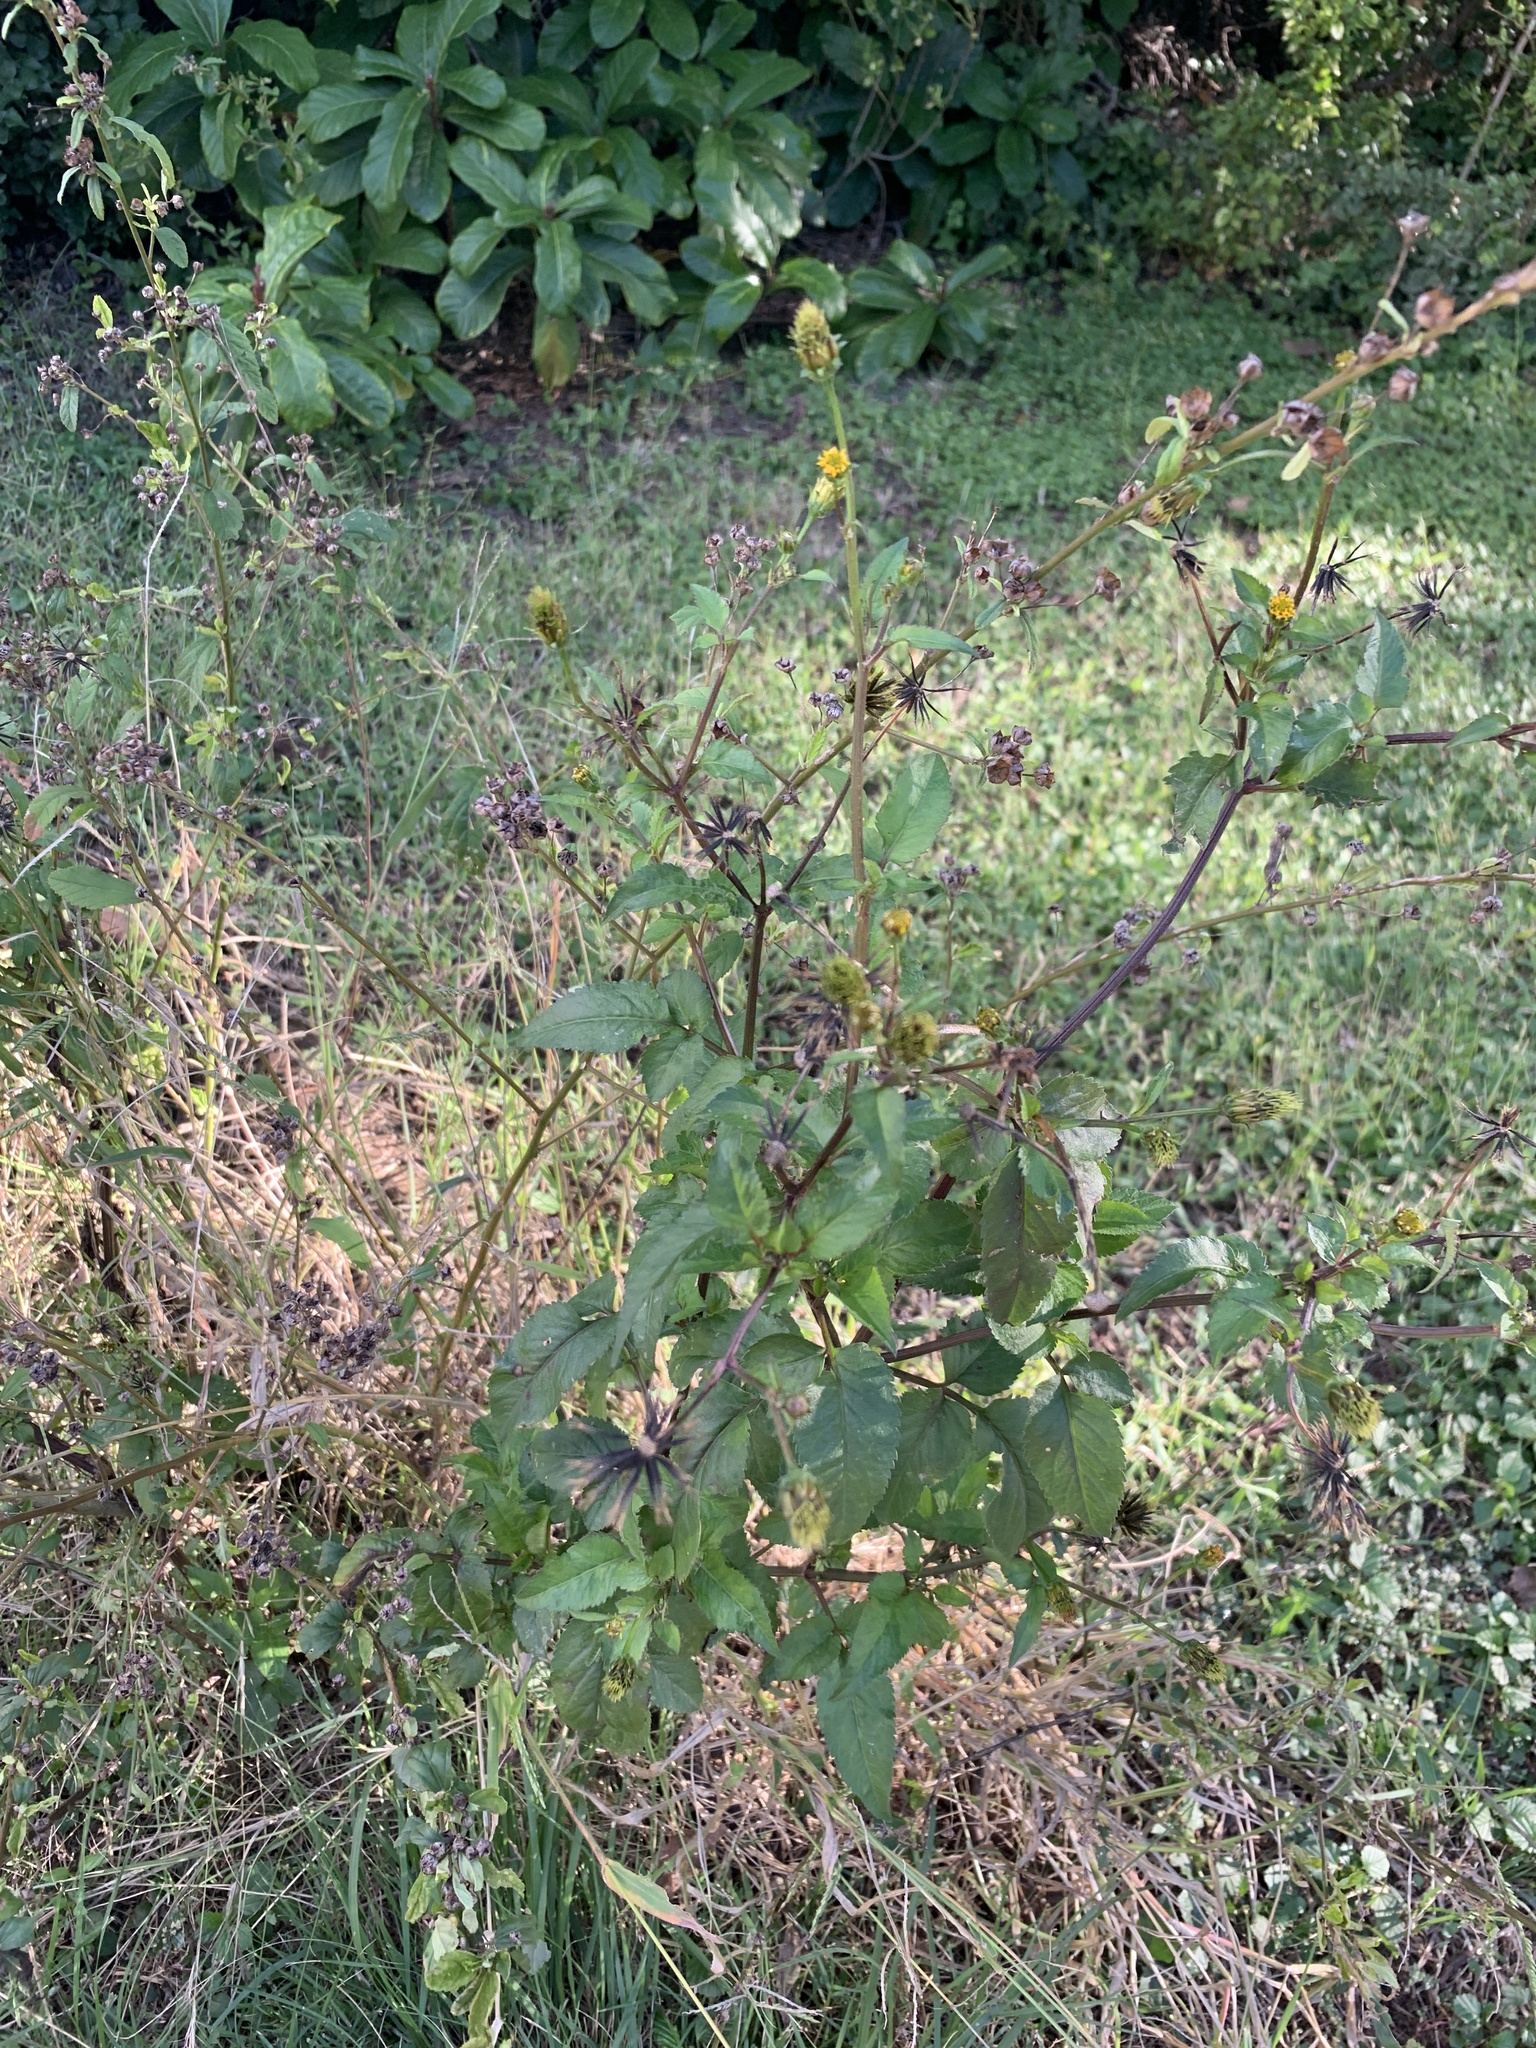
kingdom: Plantae
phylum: Tracheophyta
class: Magnoliopsida
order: Asterales
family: Asteraceae
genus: Bidens
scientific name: Bidens pilosa
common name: Black-jack
